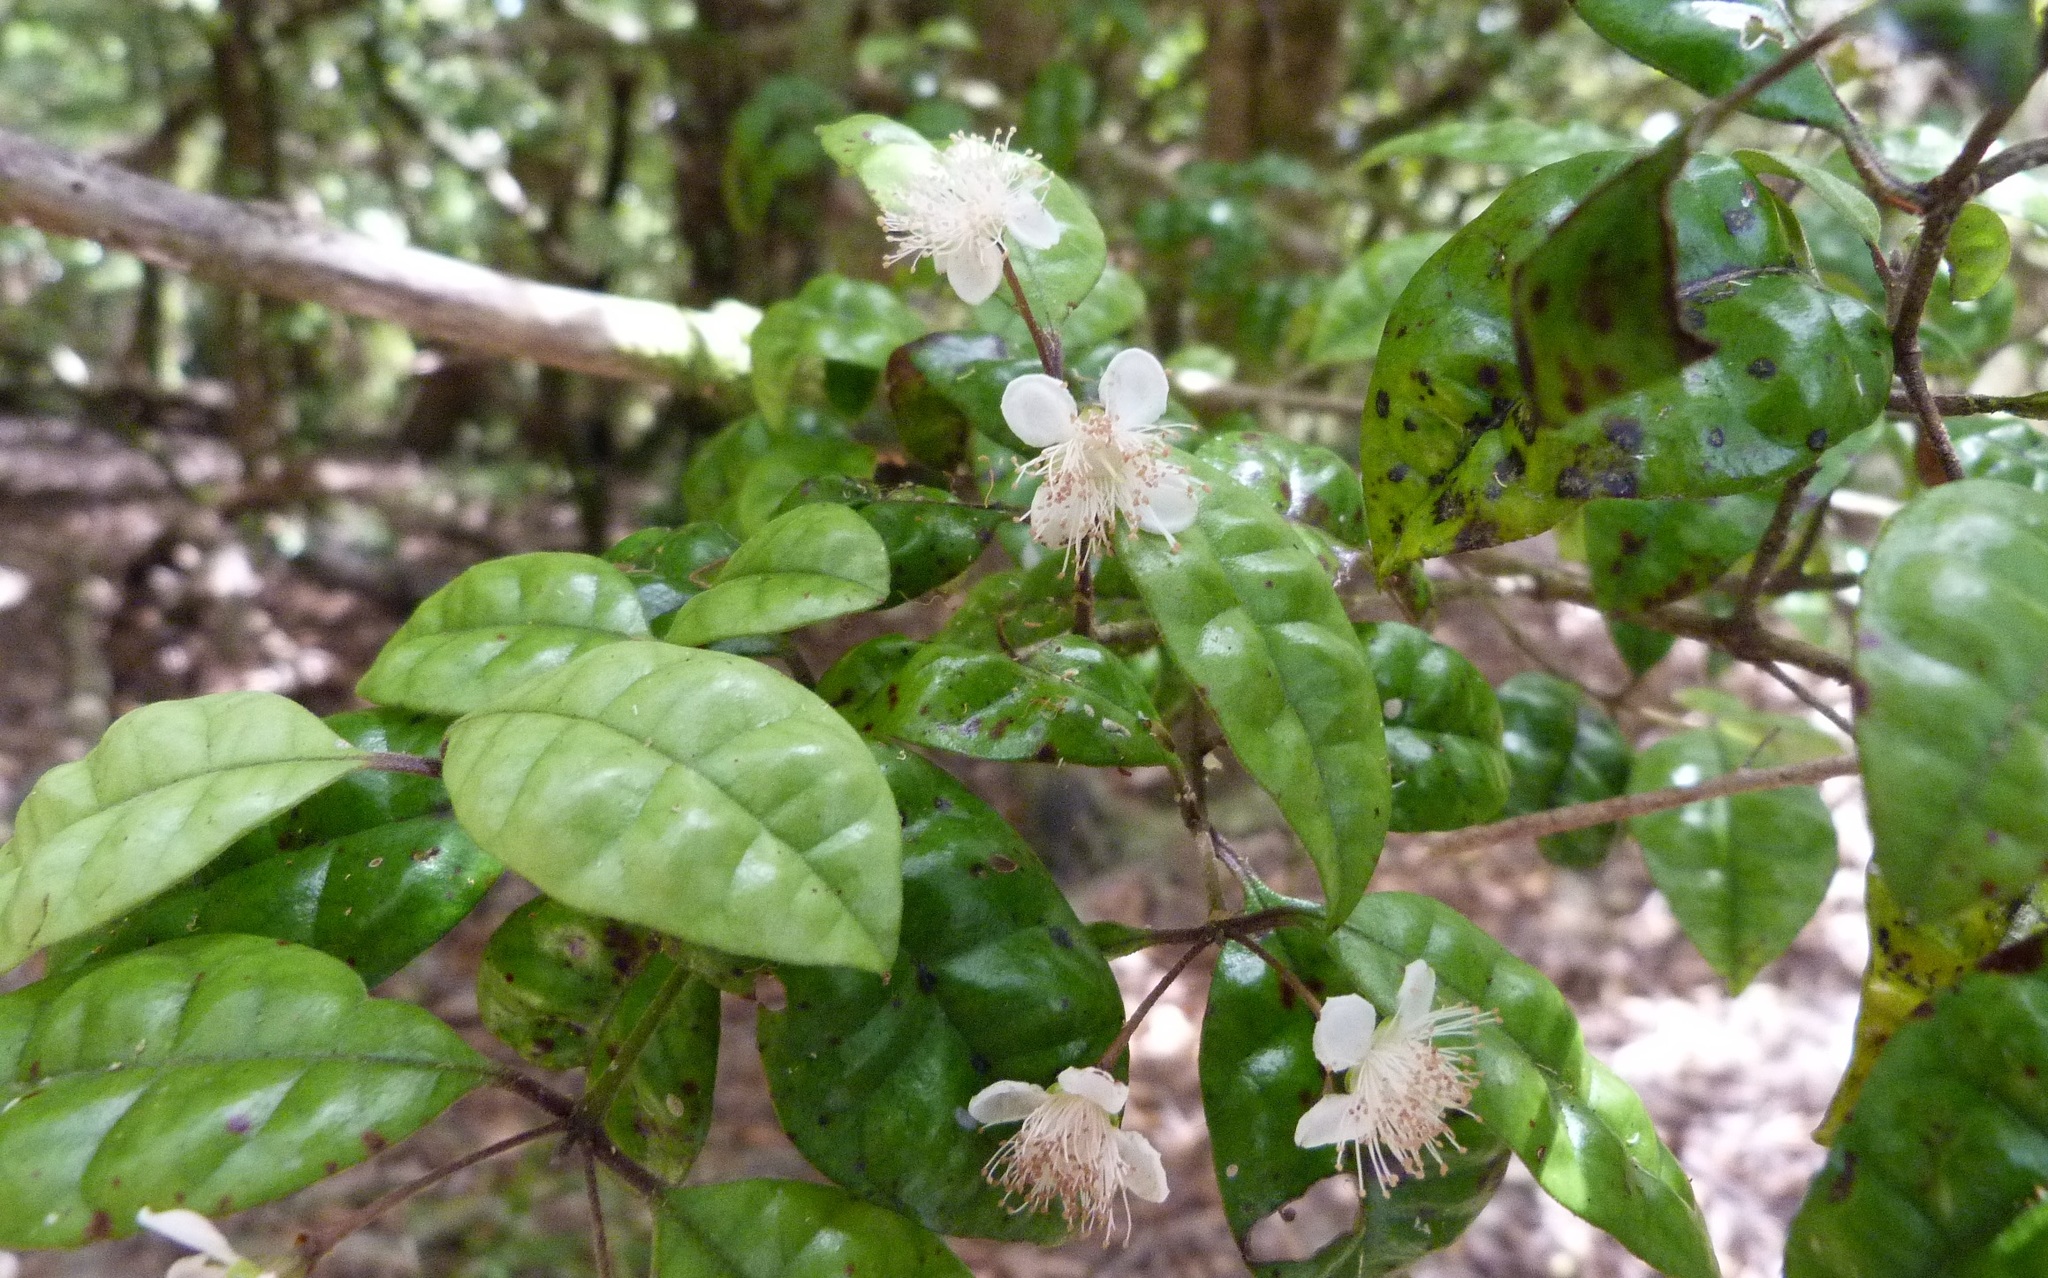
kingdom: Plantae
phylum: Tracheophyta
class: Magnoliopsida
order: Myrtales
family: Myrtaceae
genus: Lophomyrtus
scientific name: Lophomyrtus bullata
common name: Rama rama
